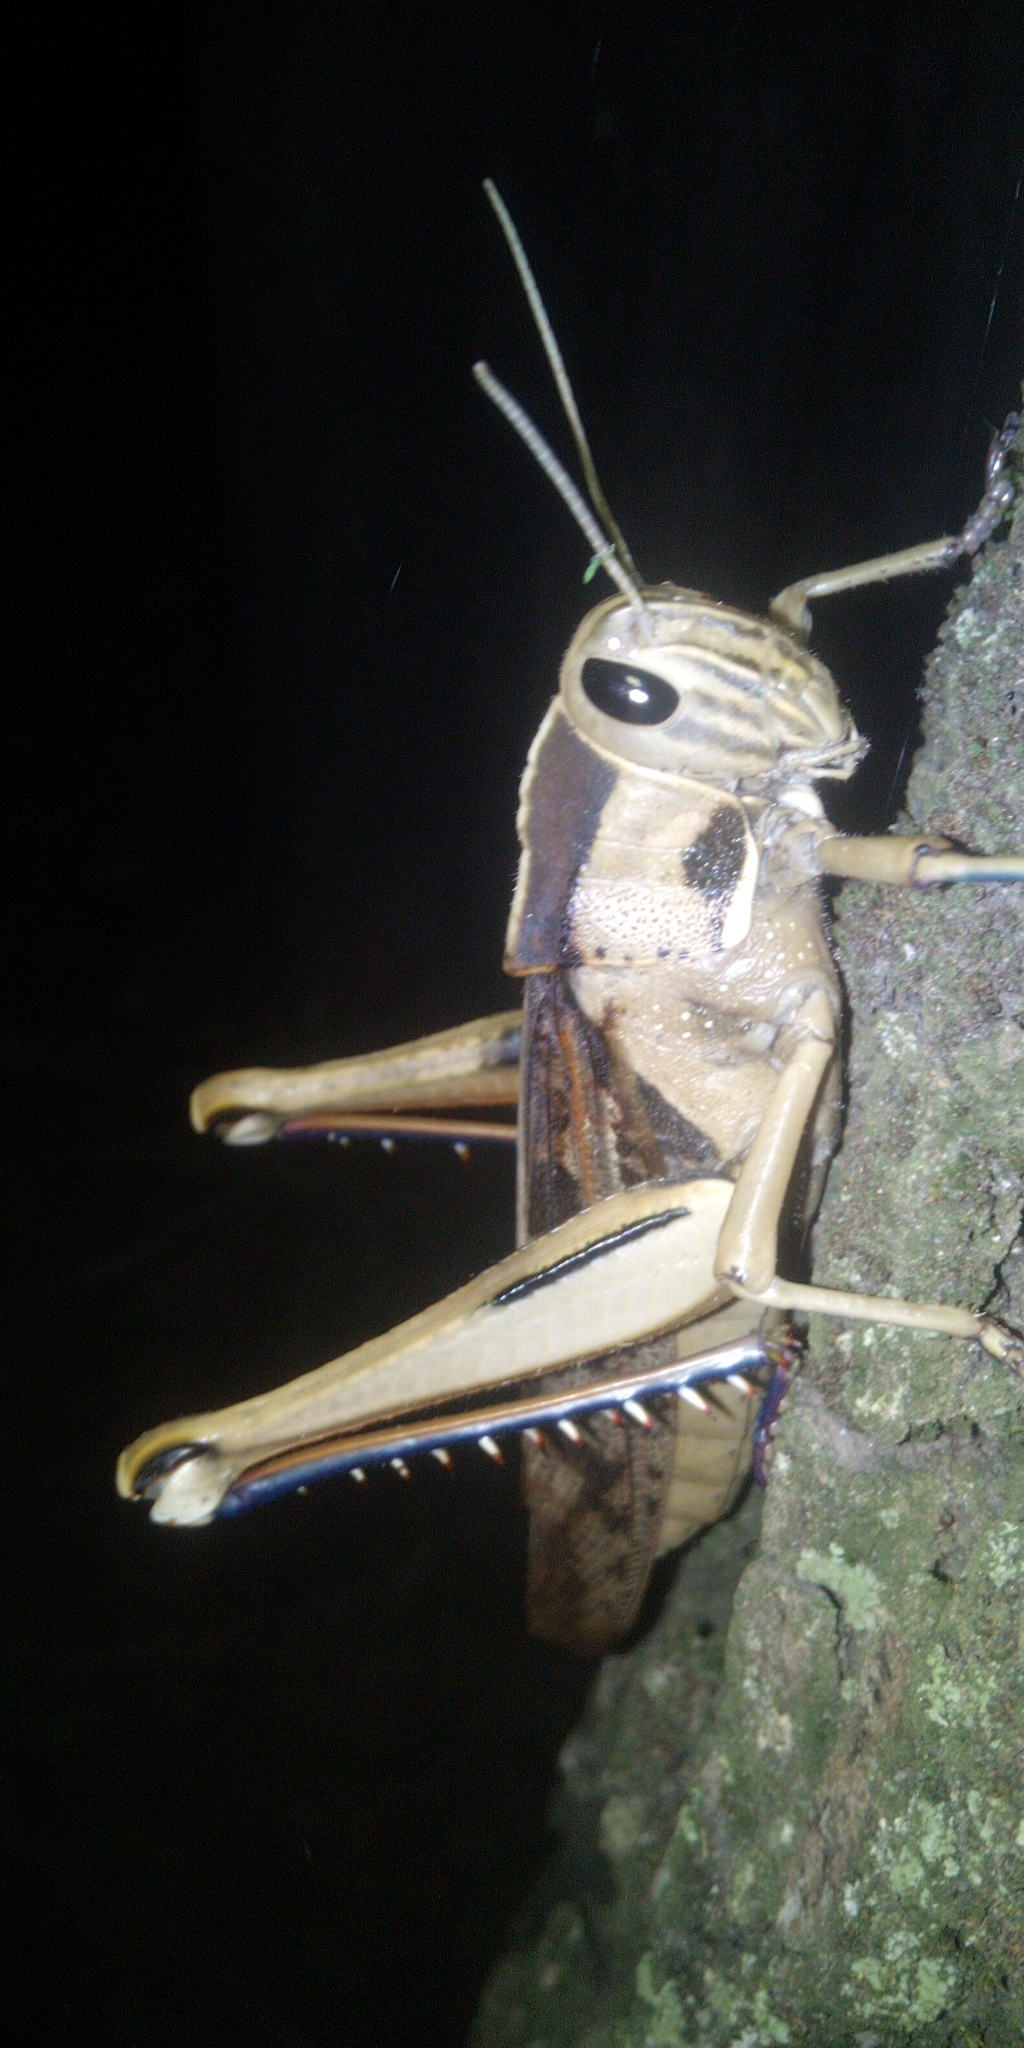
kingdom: Animalia
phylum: Arthropoda
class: Insecta
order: Orthoptera
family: Acrididae
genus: Acanthacris
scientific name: Acanthacris ruficornis
